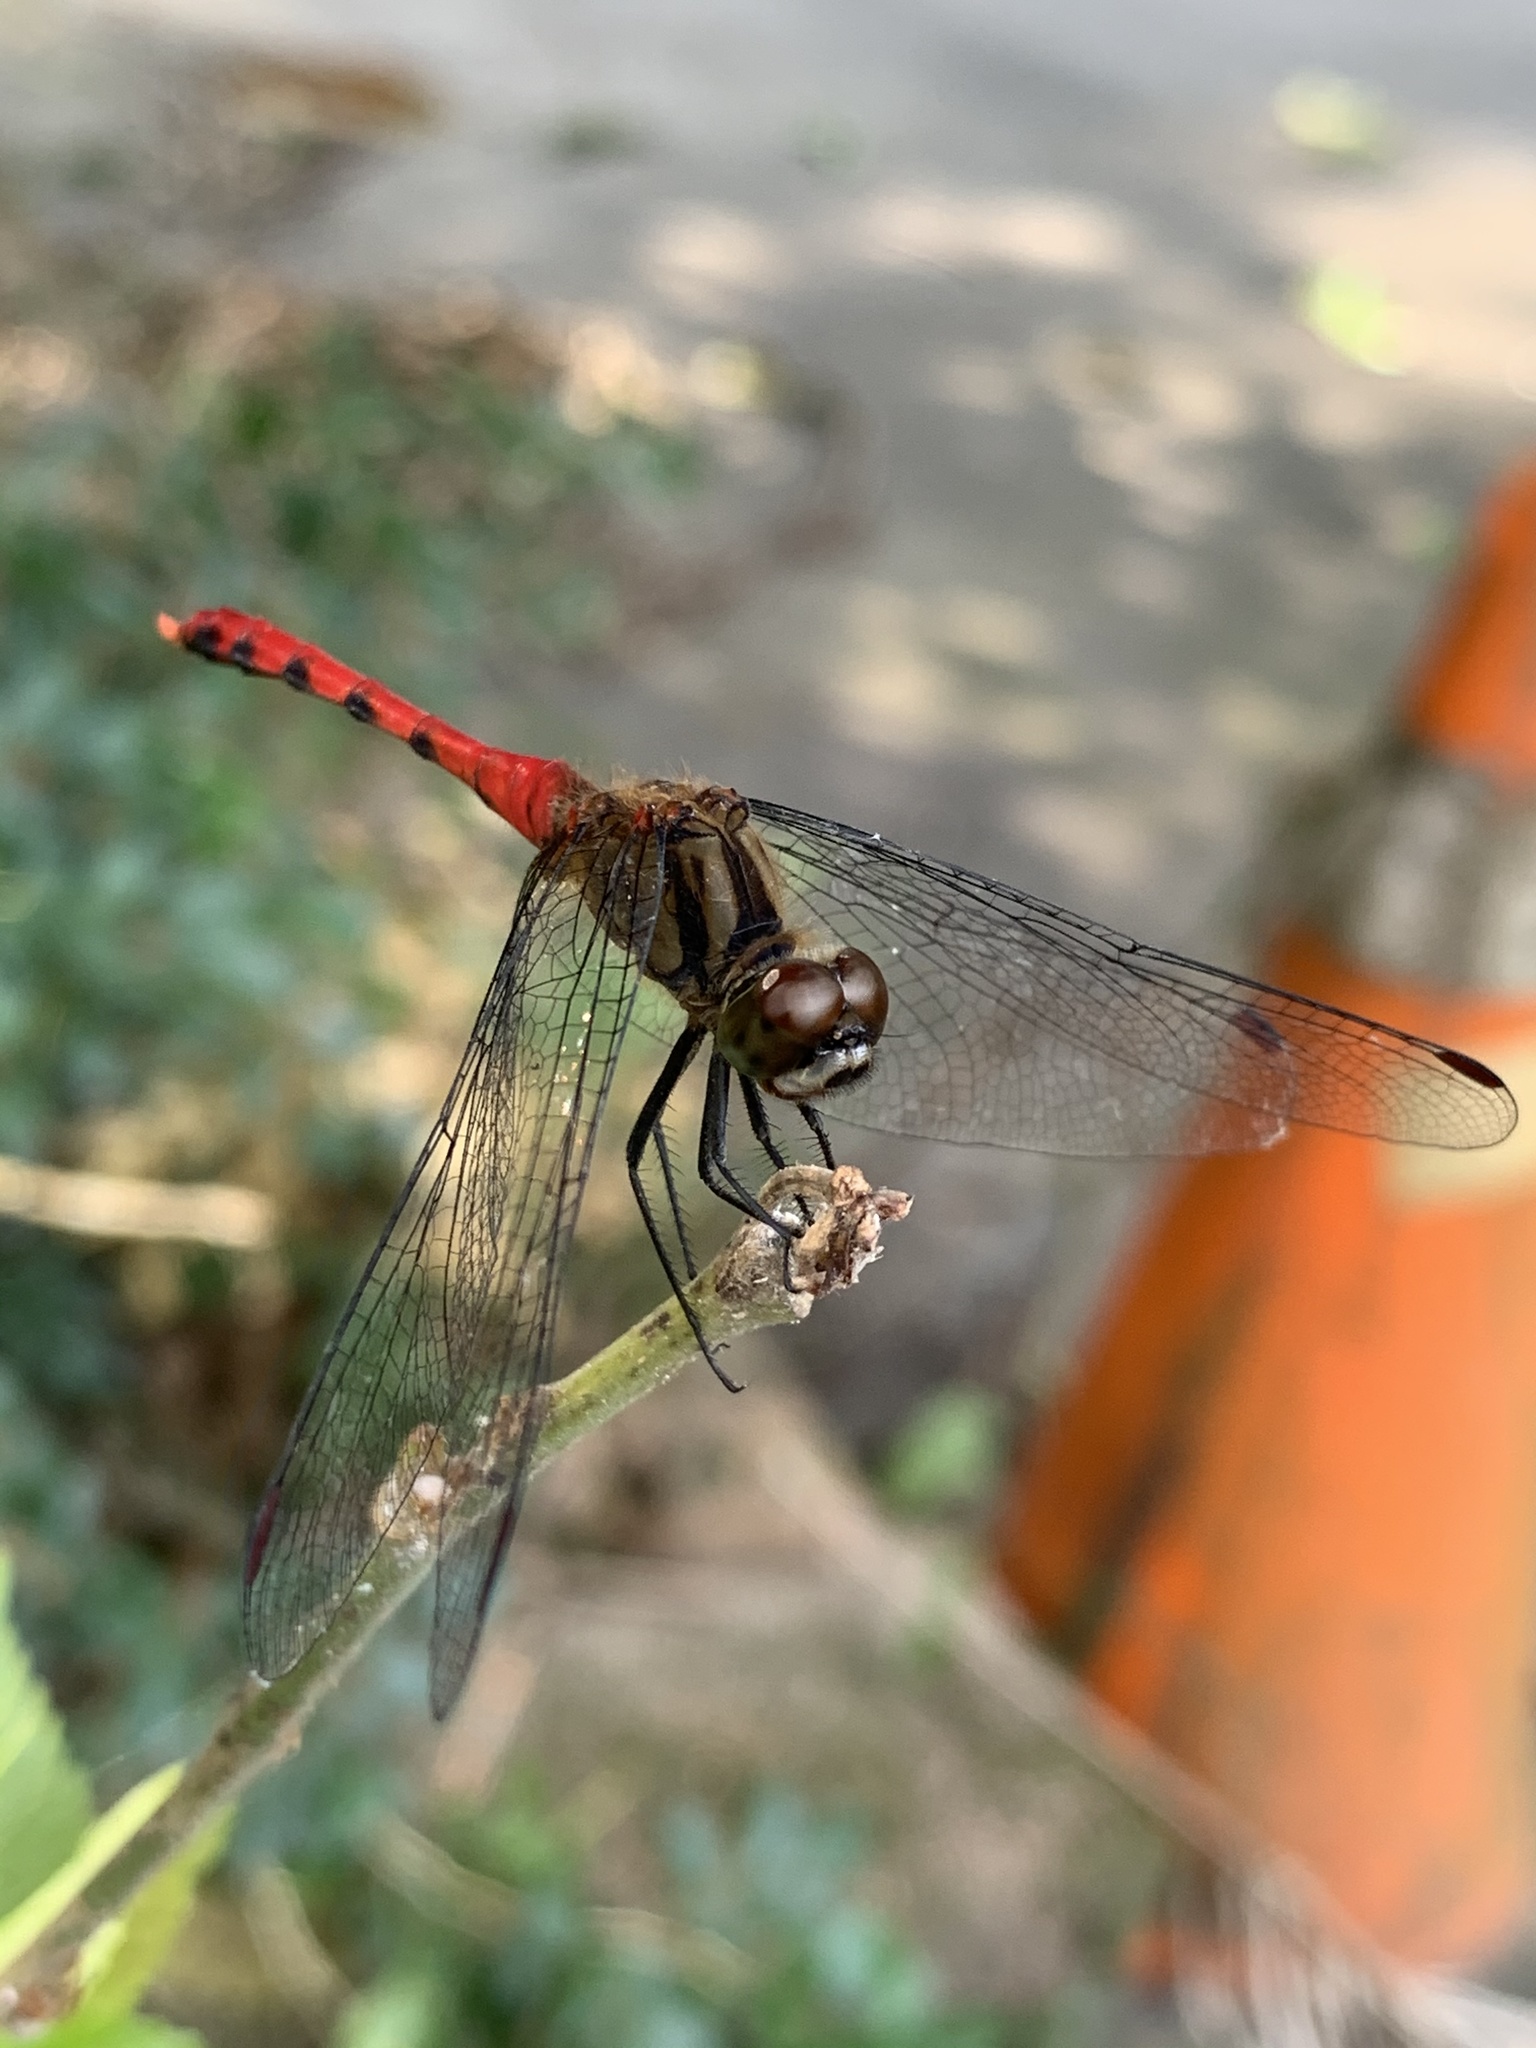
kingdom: Animalia
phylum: Arthropoda
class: Insecta
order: Odonata
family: Libellulidae
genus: Sympetrum
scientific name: Sympetrum eroticum
